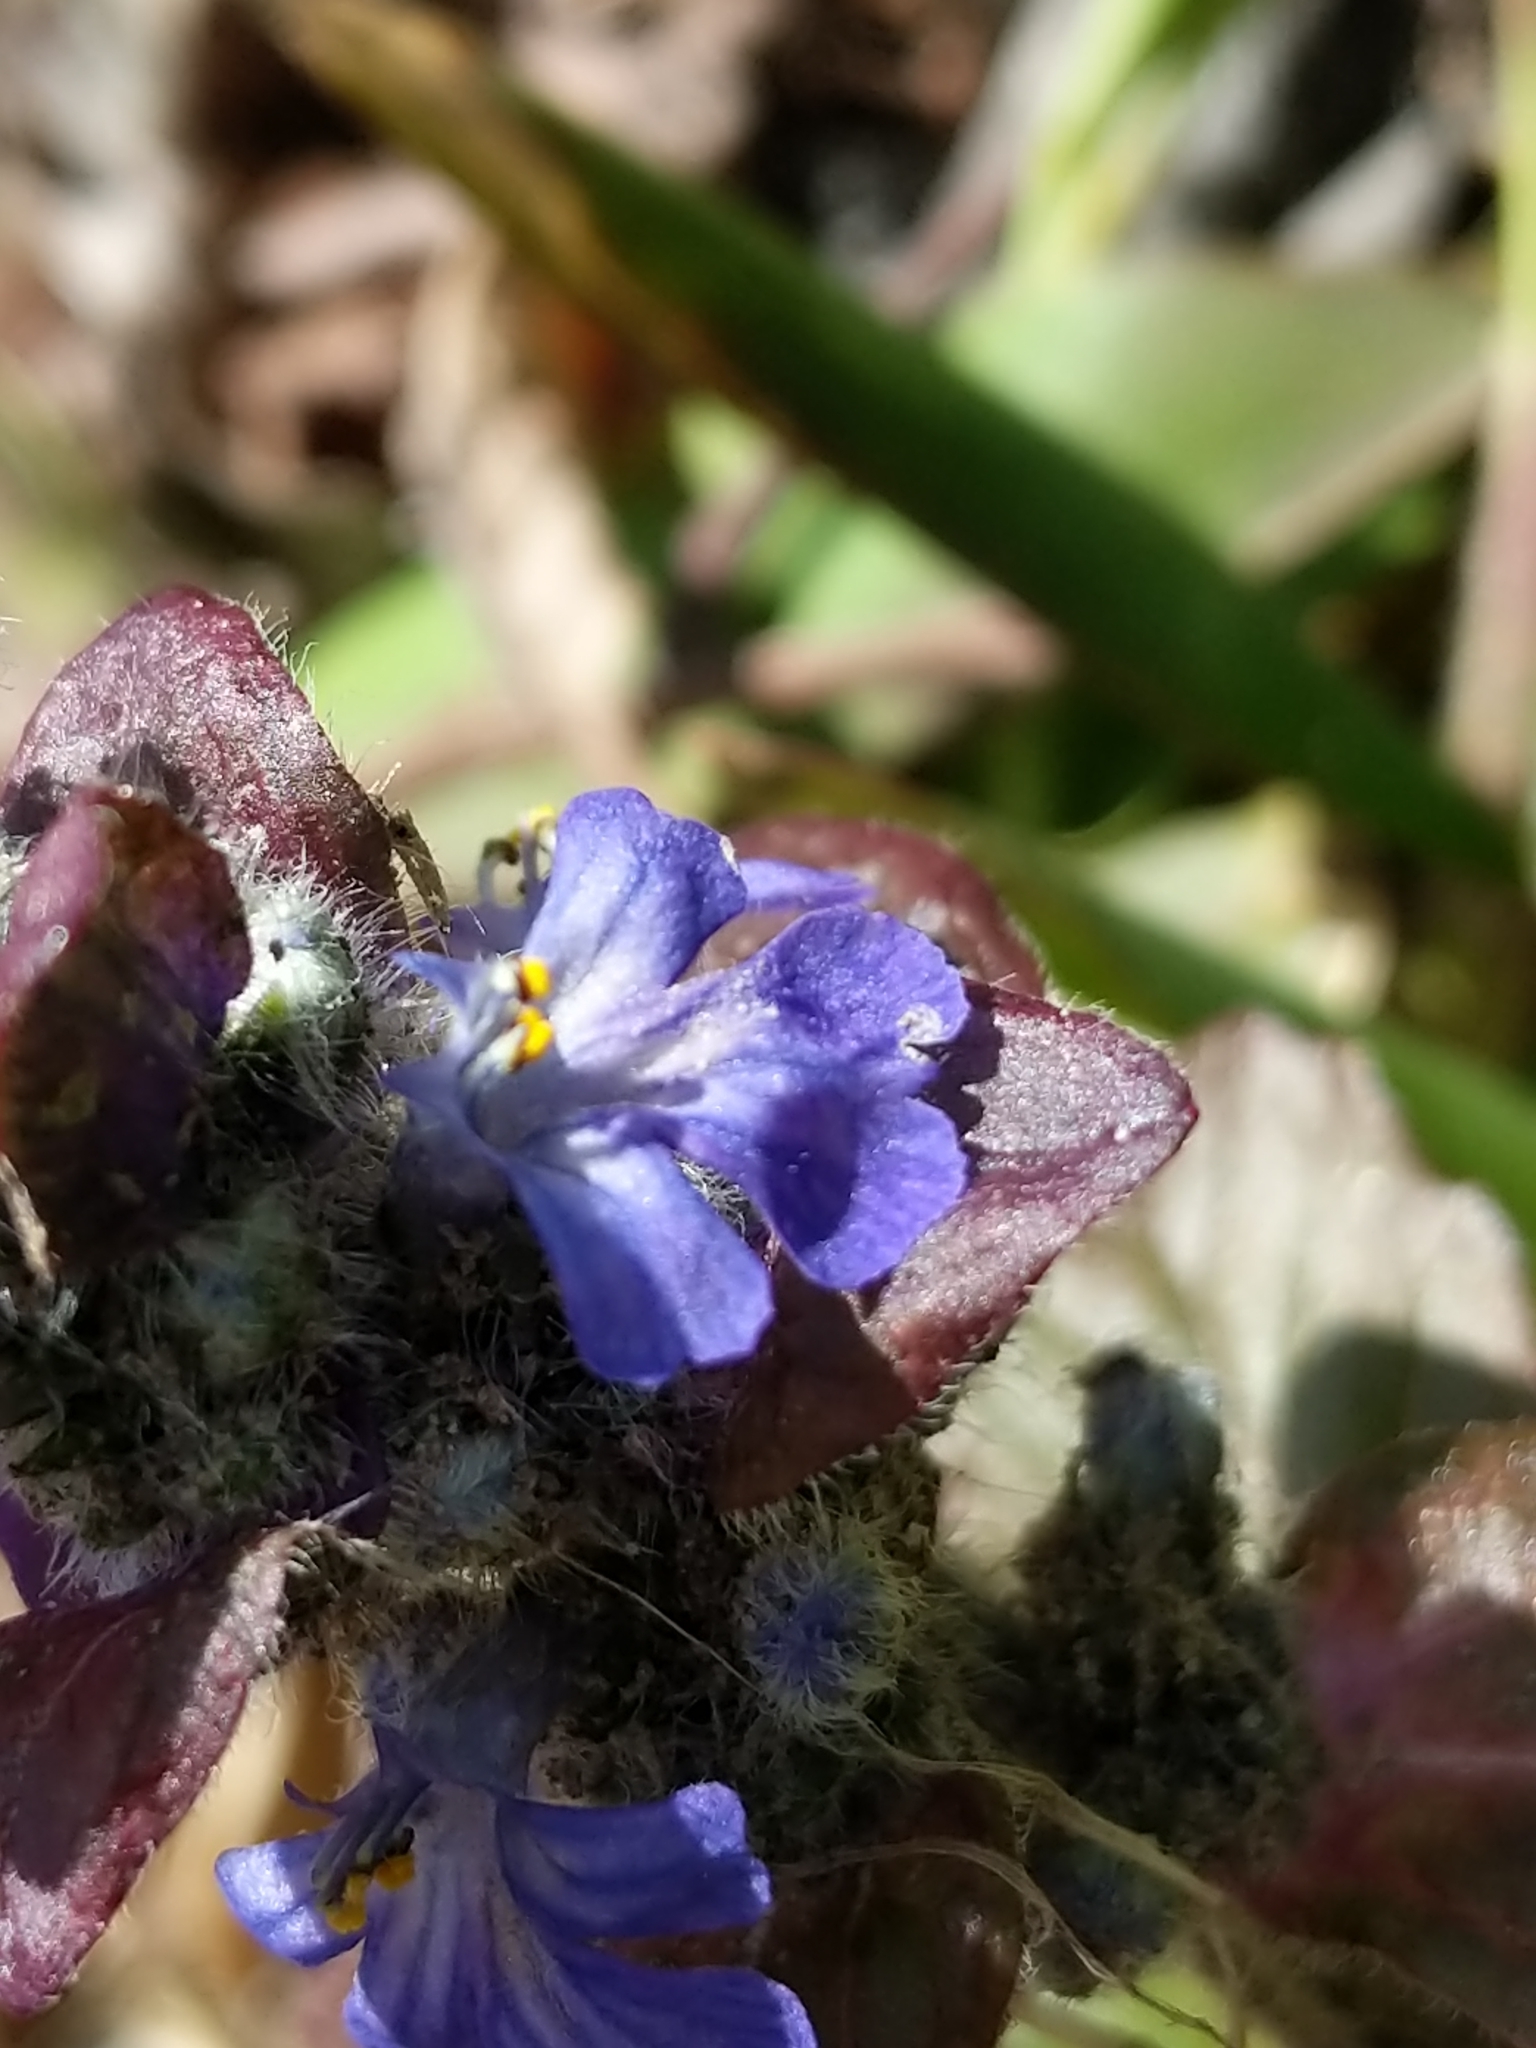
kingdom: Plantae
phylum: Tracheophyta
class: Magnoliopsida
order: Lamiales
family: Lamiaceae
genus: Ajuga
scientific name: Ajuga reptans
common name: Bugle
